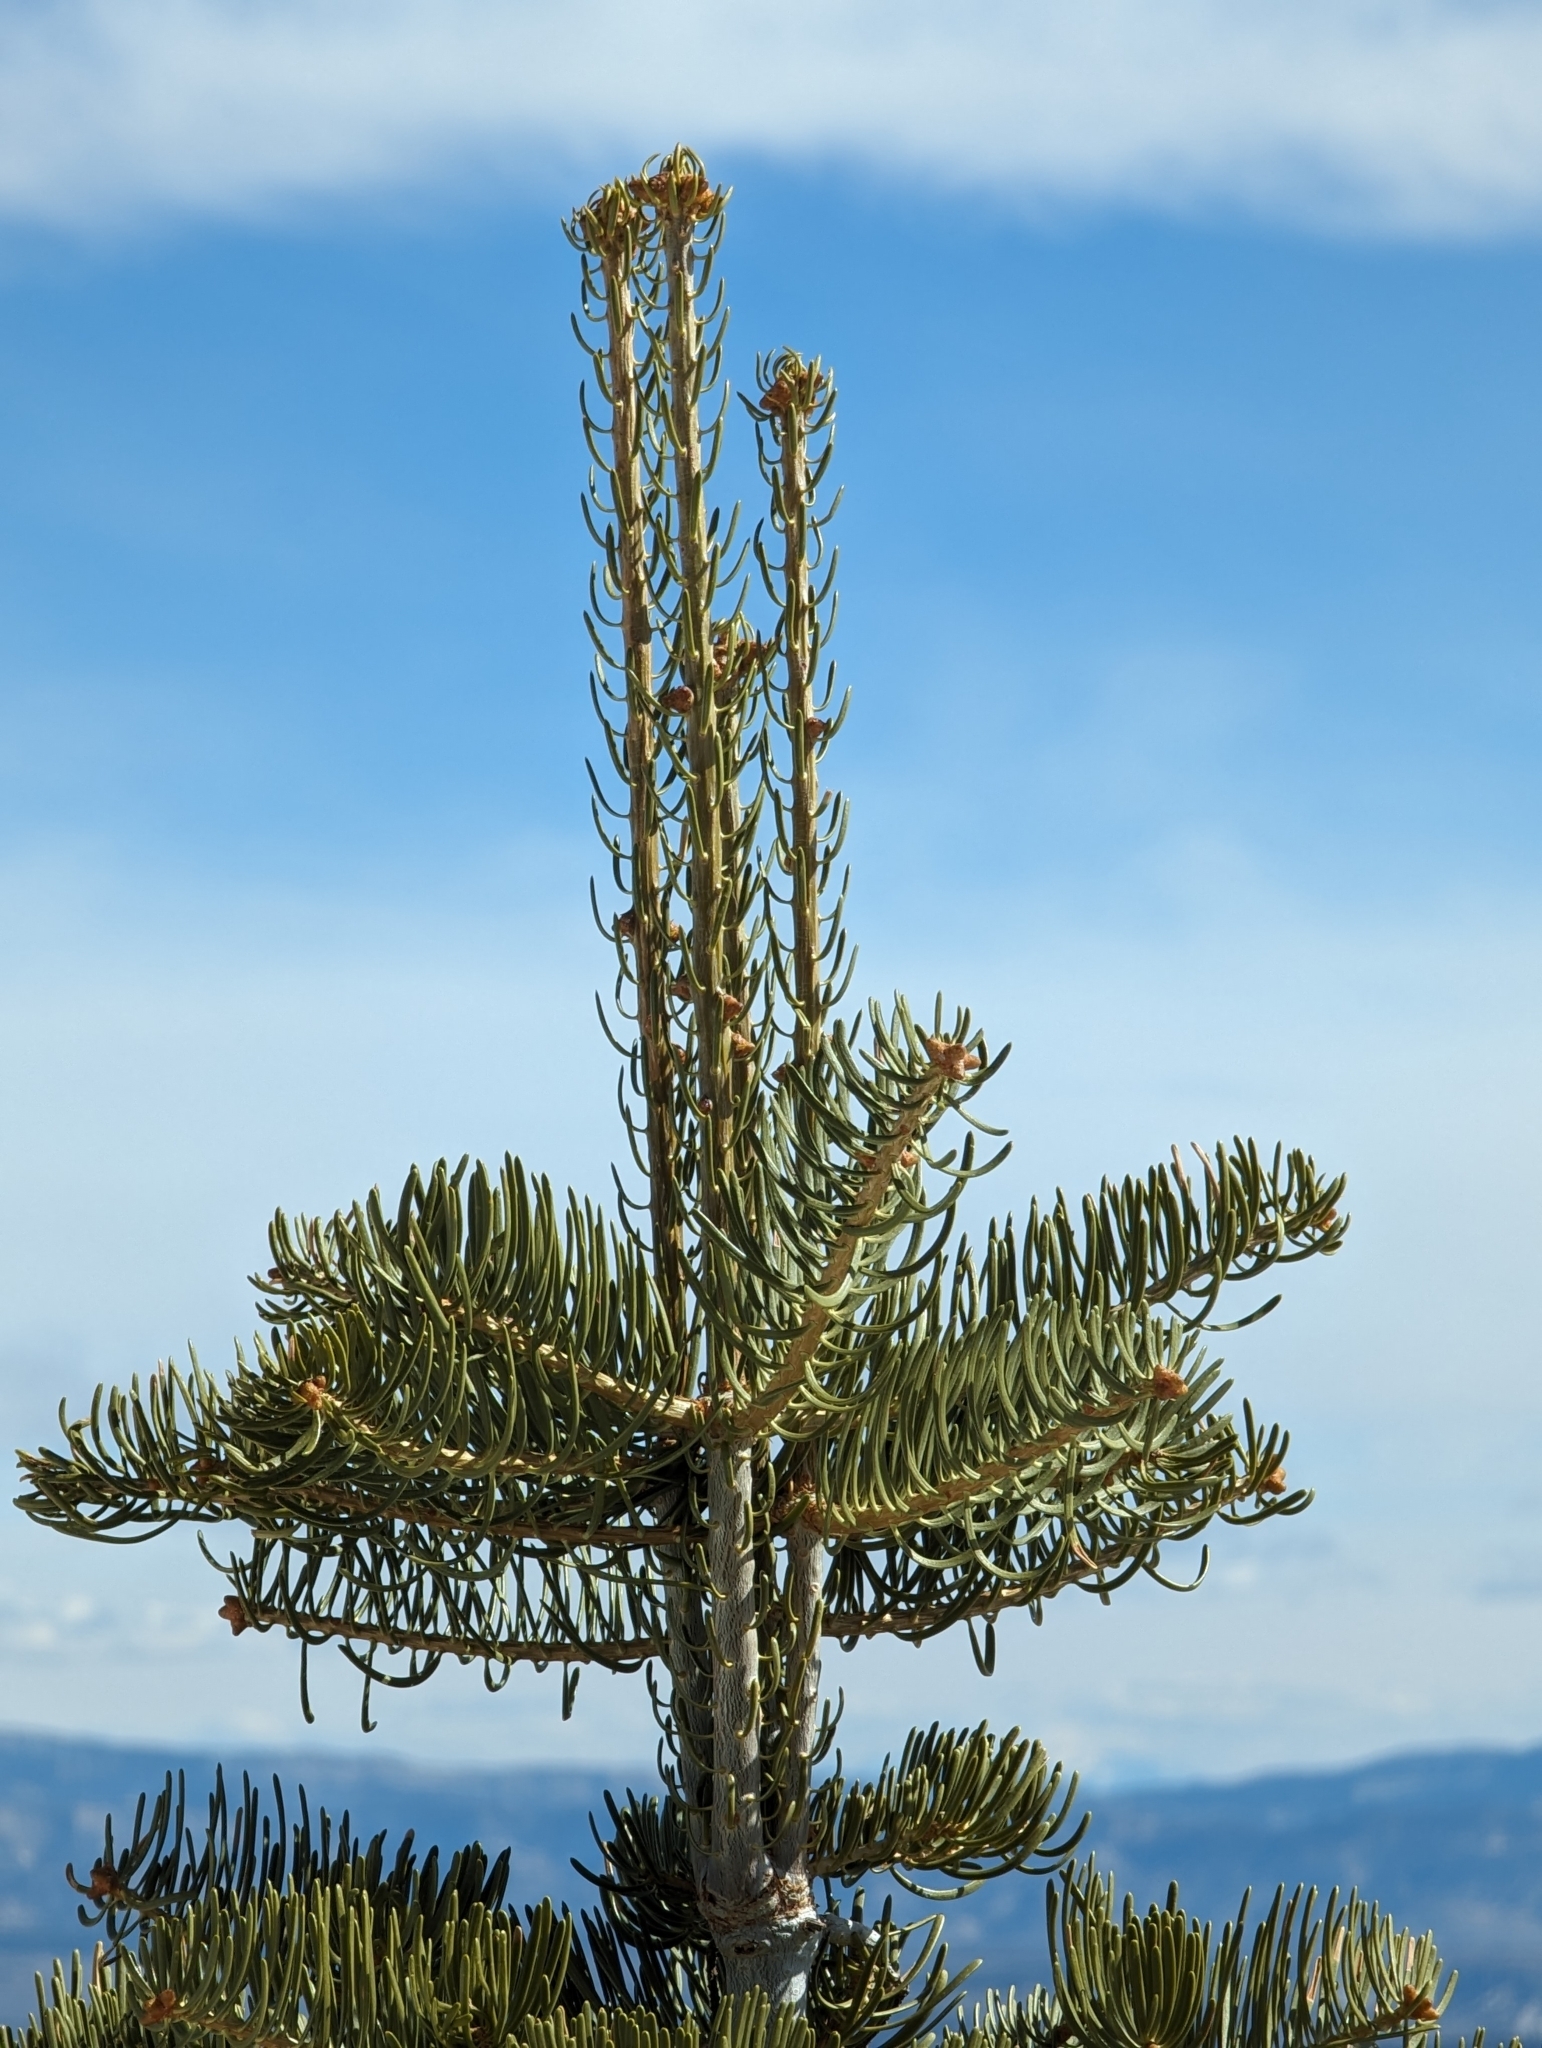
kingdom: Plantae
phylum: Tracheophyta
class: Pinopsida
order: Pinales
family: Pinaceae
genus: Abies
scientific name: Abies concolor
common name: Colorado fir
